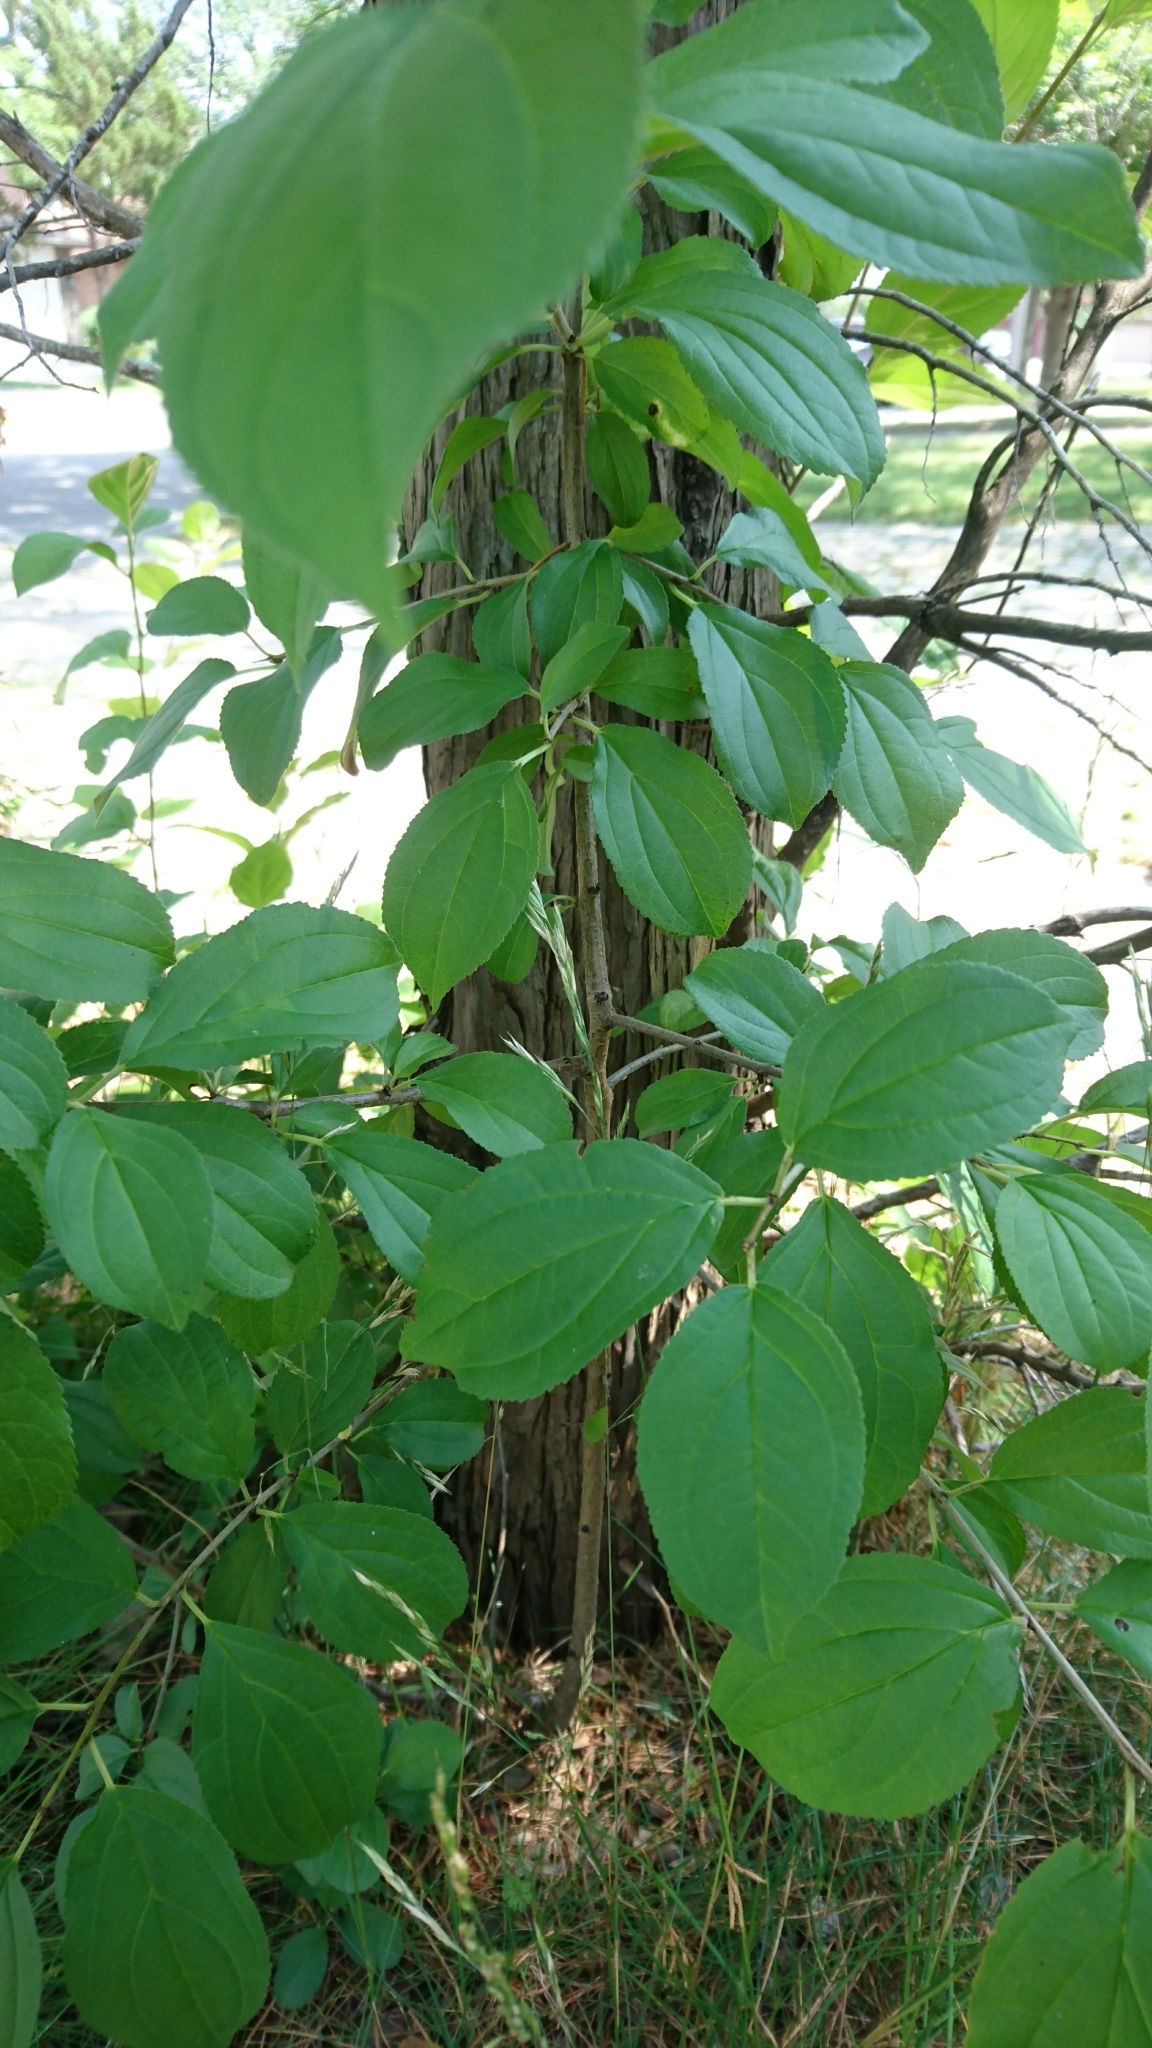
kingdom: Plantae
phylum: Tracheophyta
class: Magnoliopsida
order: Rosales
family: Rhamnaceae
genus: Rhamnus
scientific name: Rhamnus cathartica
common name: Common buckthorn
